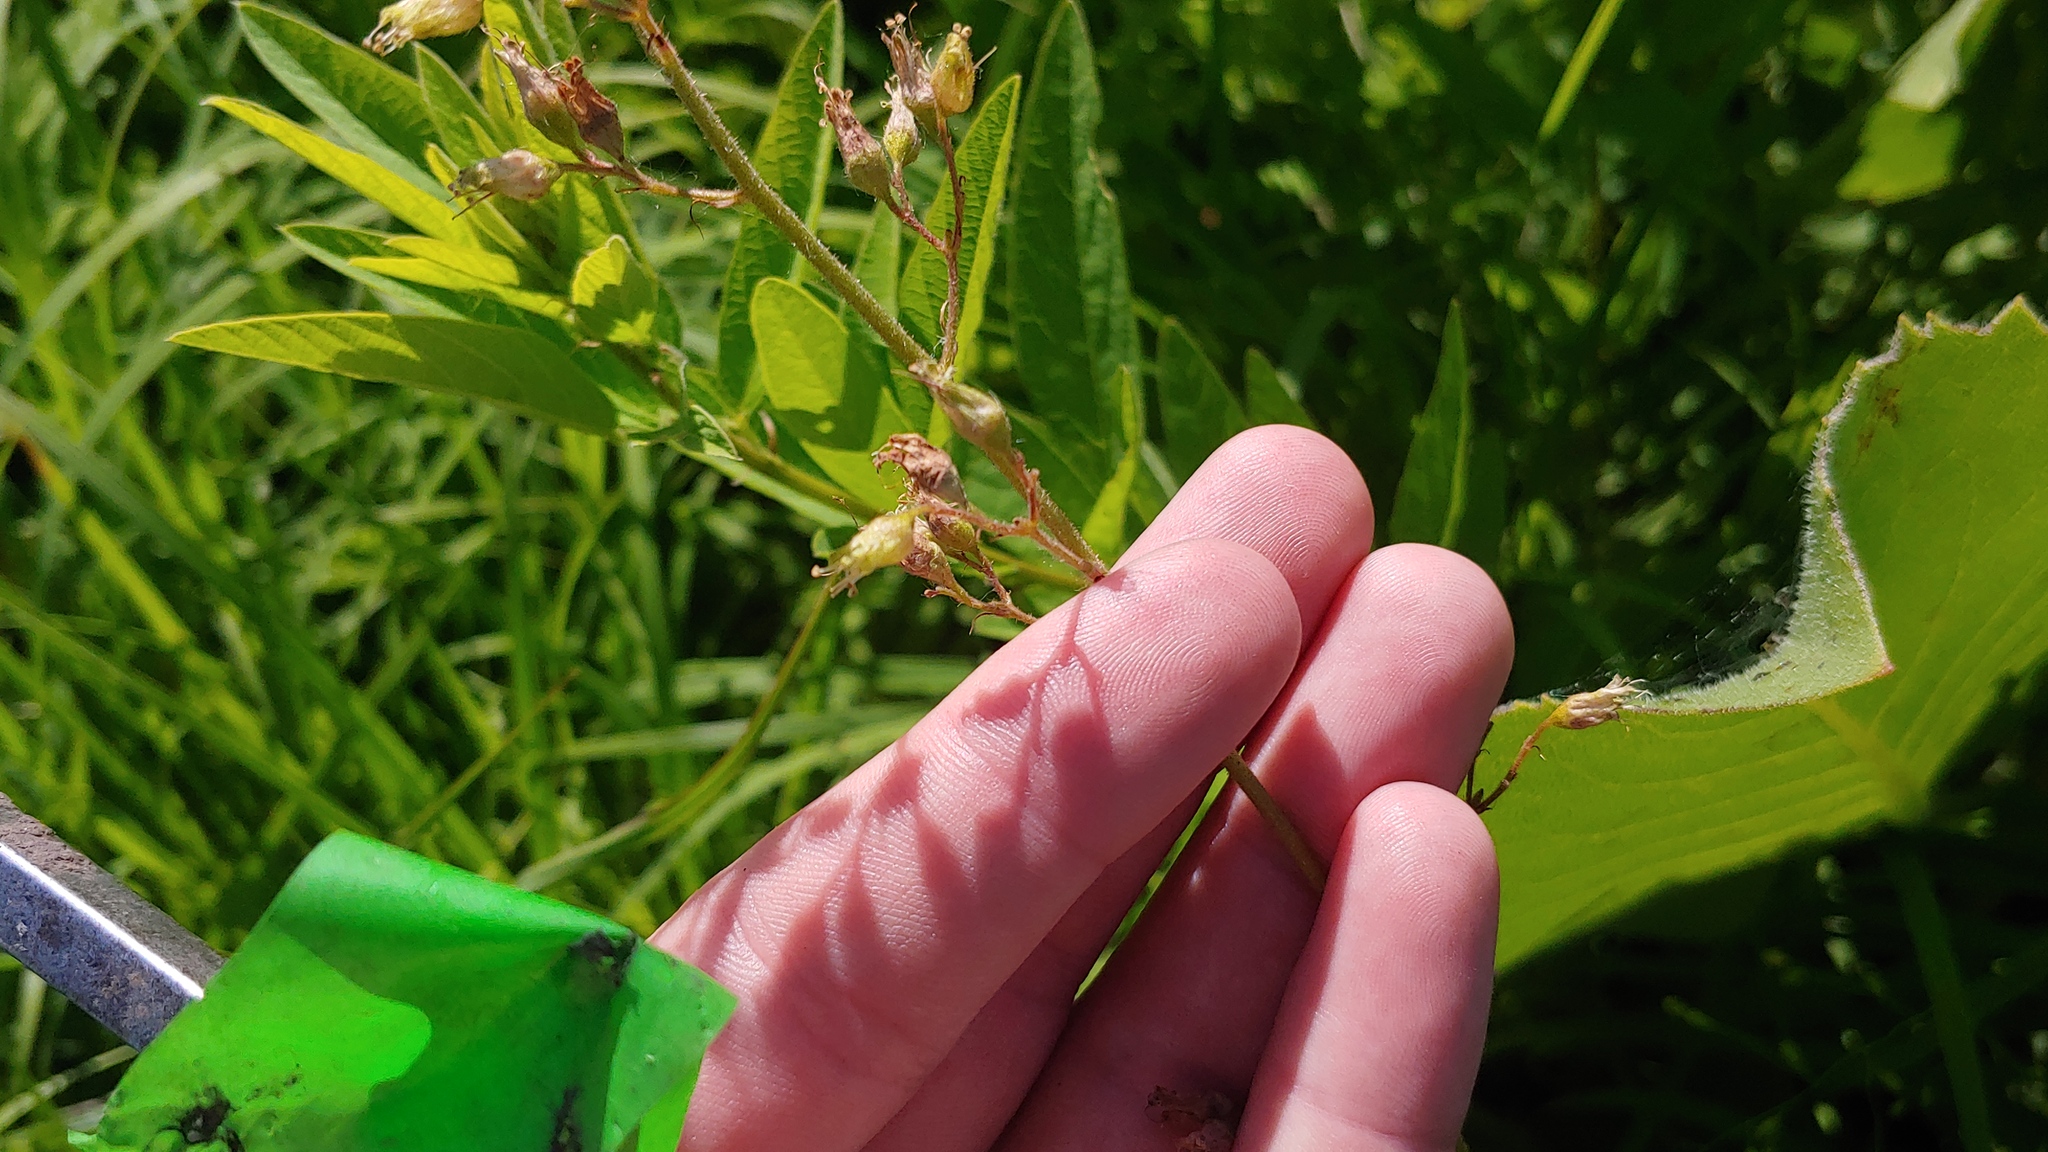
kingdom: Plantae
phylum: Tracheophyta
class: Magnoliopsida
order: Saxifragales
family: Saxifragaceae
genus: Heuchera
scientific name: Heuchera richardsonii
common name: Richardson's alumroot
